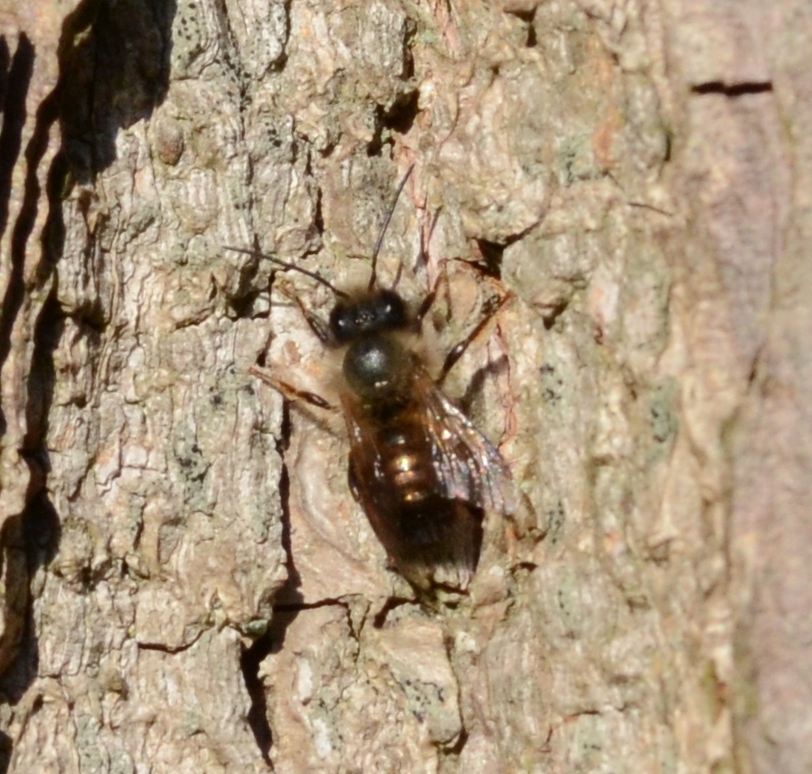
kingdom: Animalia
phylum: Arthropoda
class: Insecta
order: Hymenoptera
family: Megachilidae
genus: Osmia
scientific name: Osmia bicornis
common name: Red mason bee
